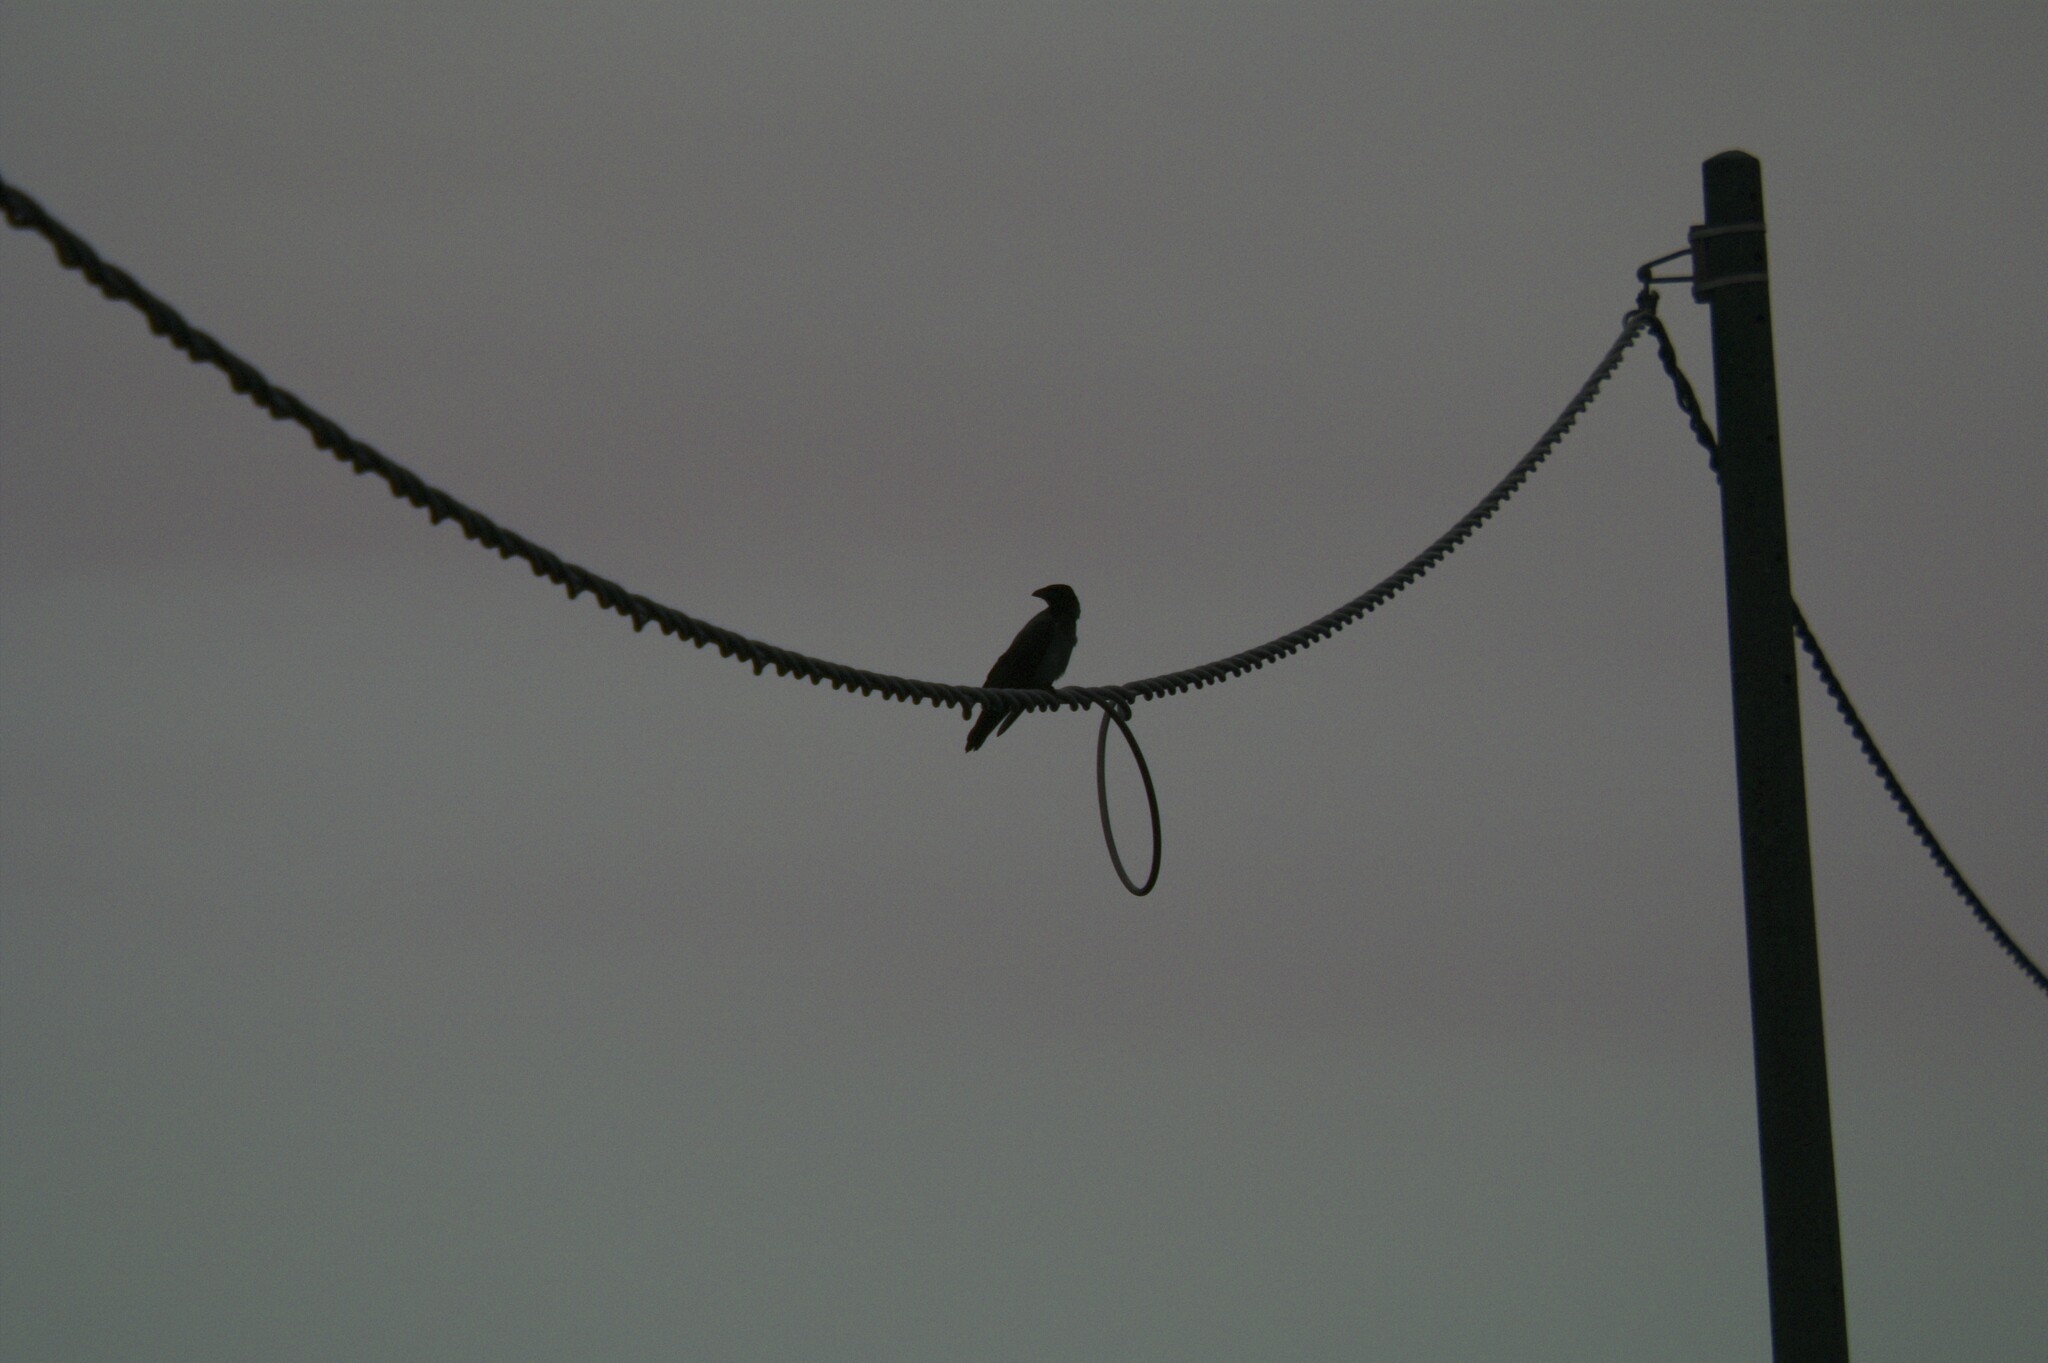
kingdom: Animalia
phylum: Chordata
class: Aves
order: Passeriformes
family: Corvidae
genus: Corvus
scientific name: Corvus cornix
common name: Hooded crow
